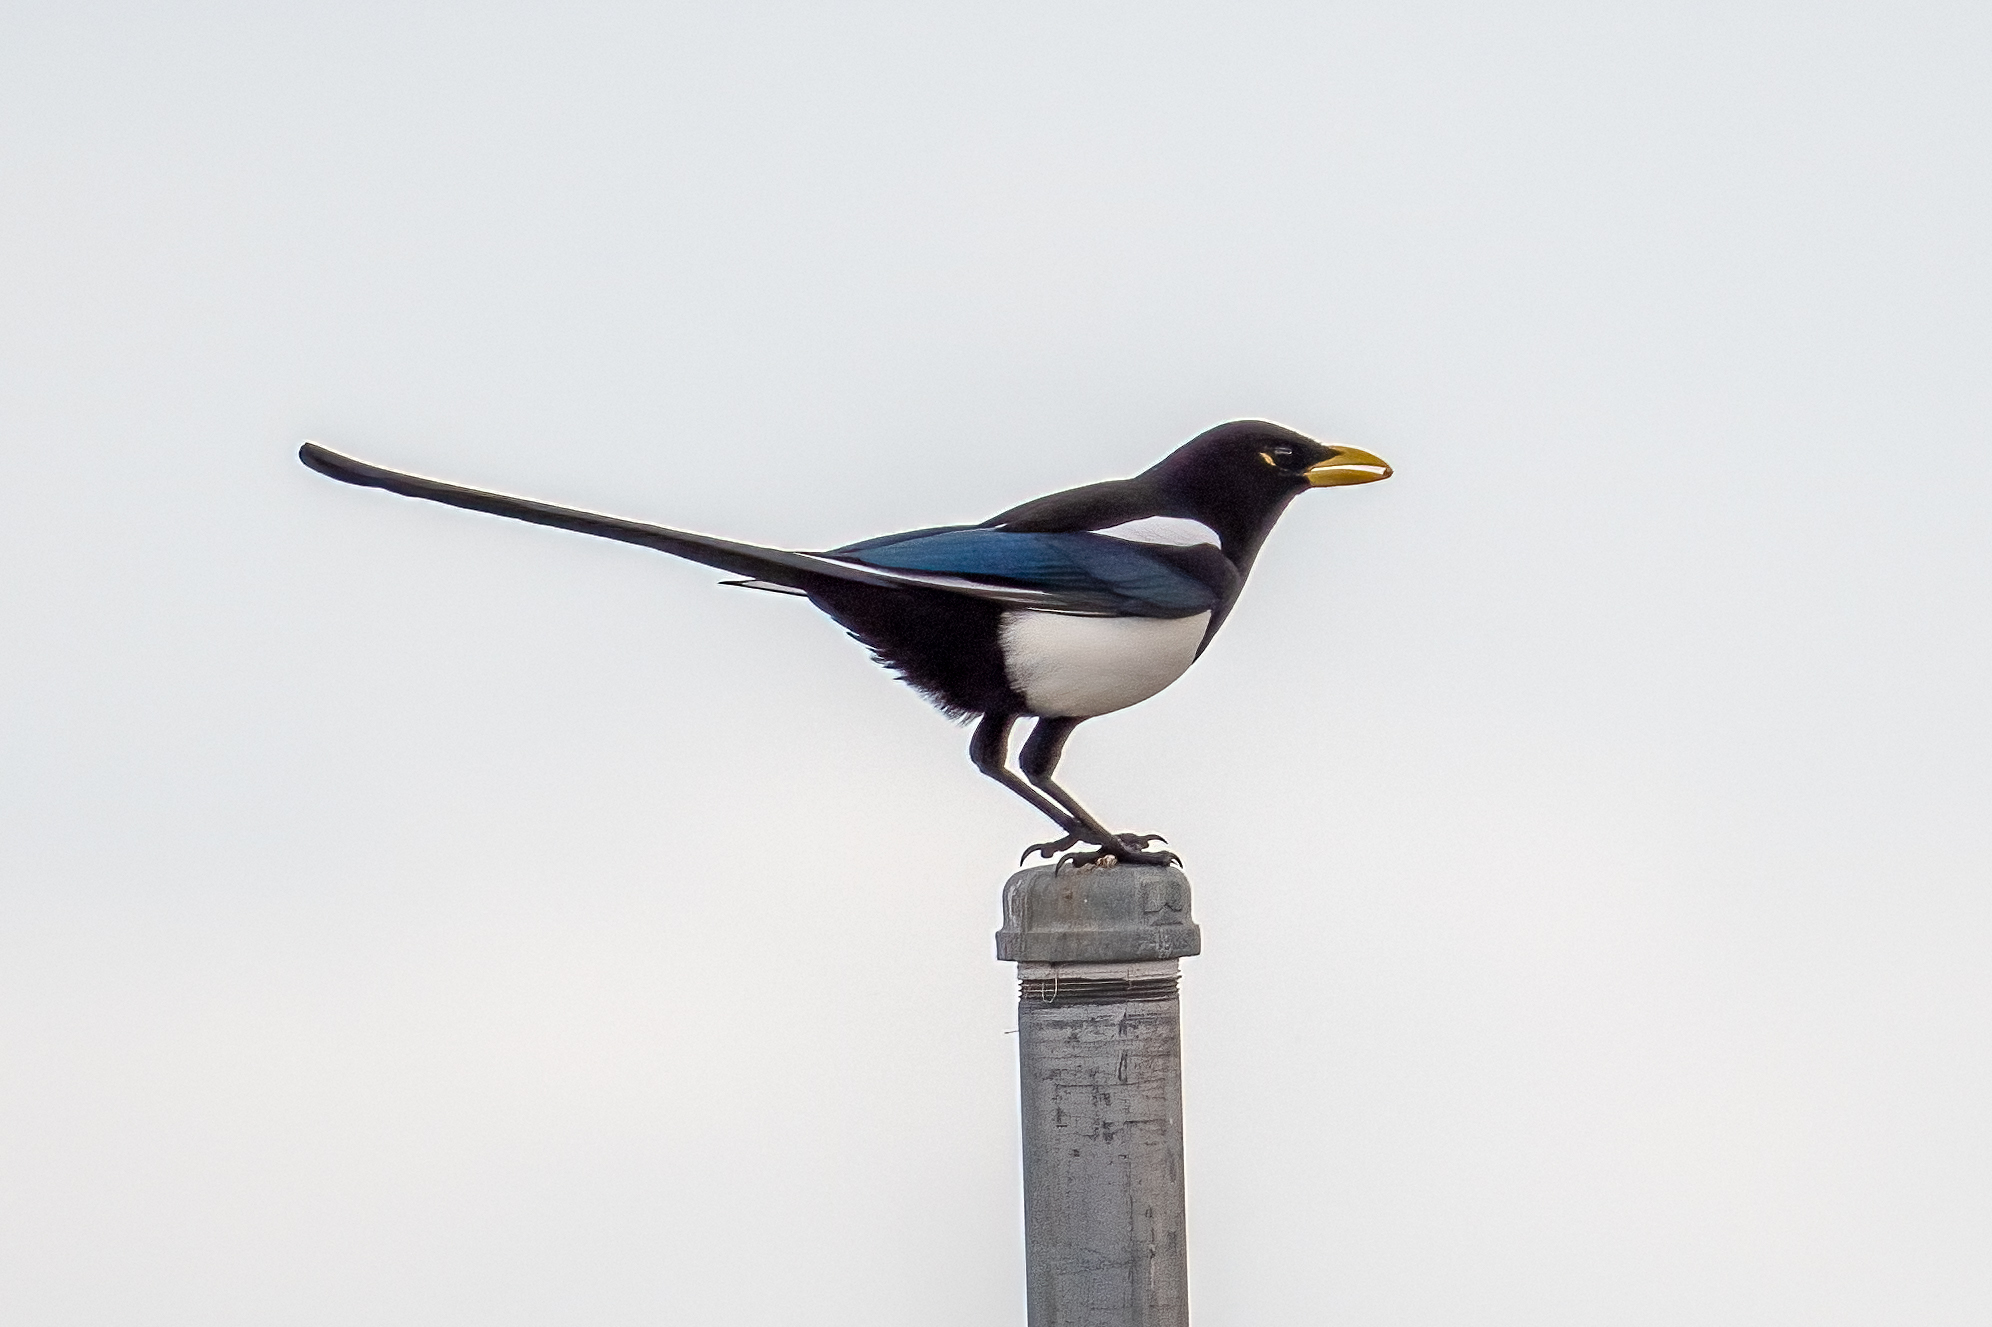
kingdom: Animalia
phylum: Chordata
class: Aves
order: Passeriformes
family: Corvidae
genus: Pica
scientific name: Pica nuttalli
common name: Yellow-billed magpie
